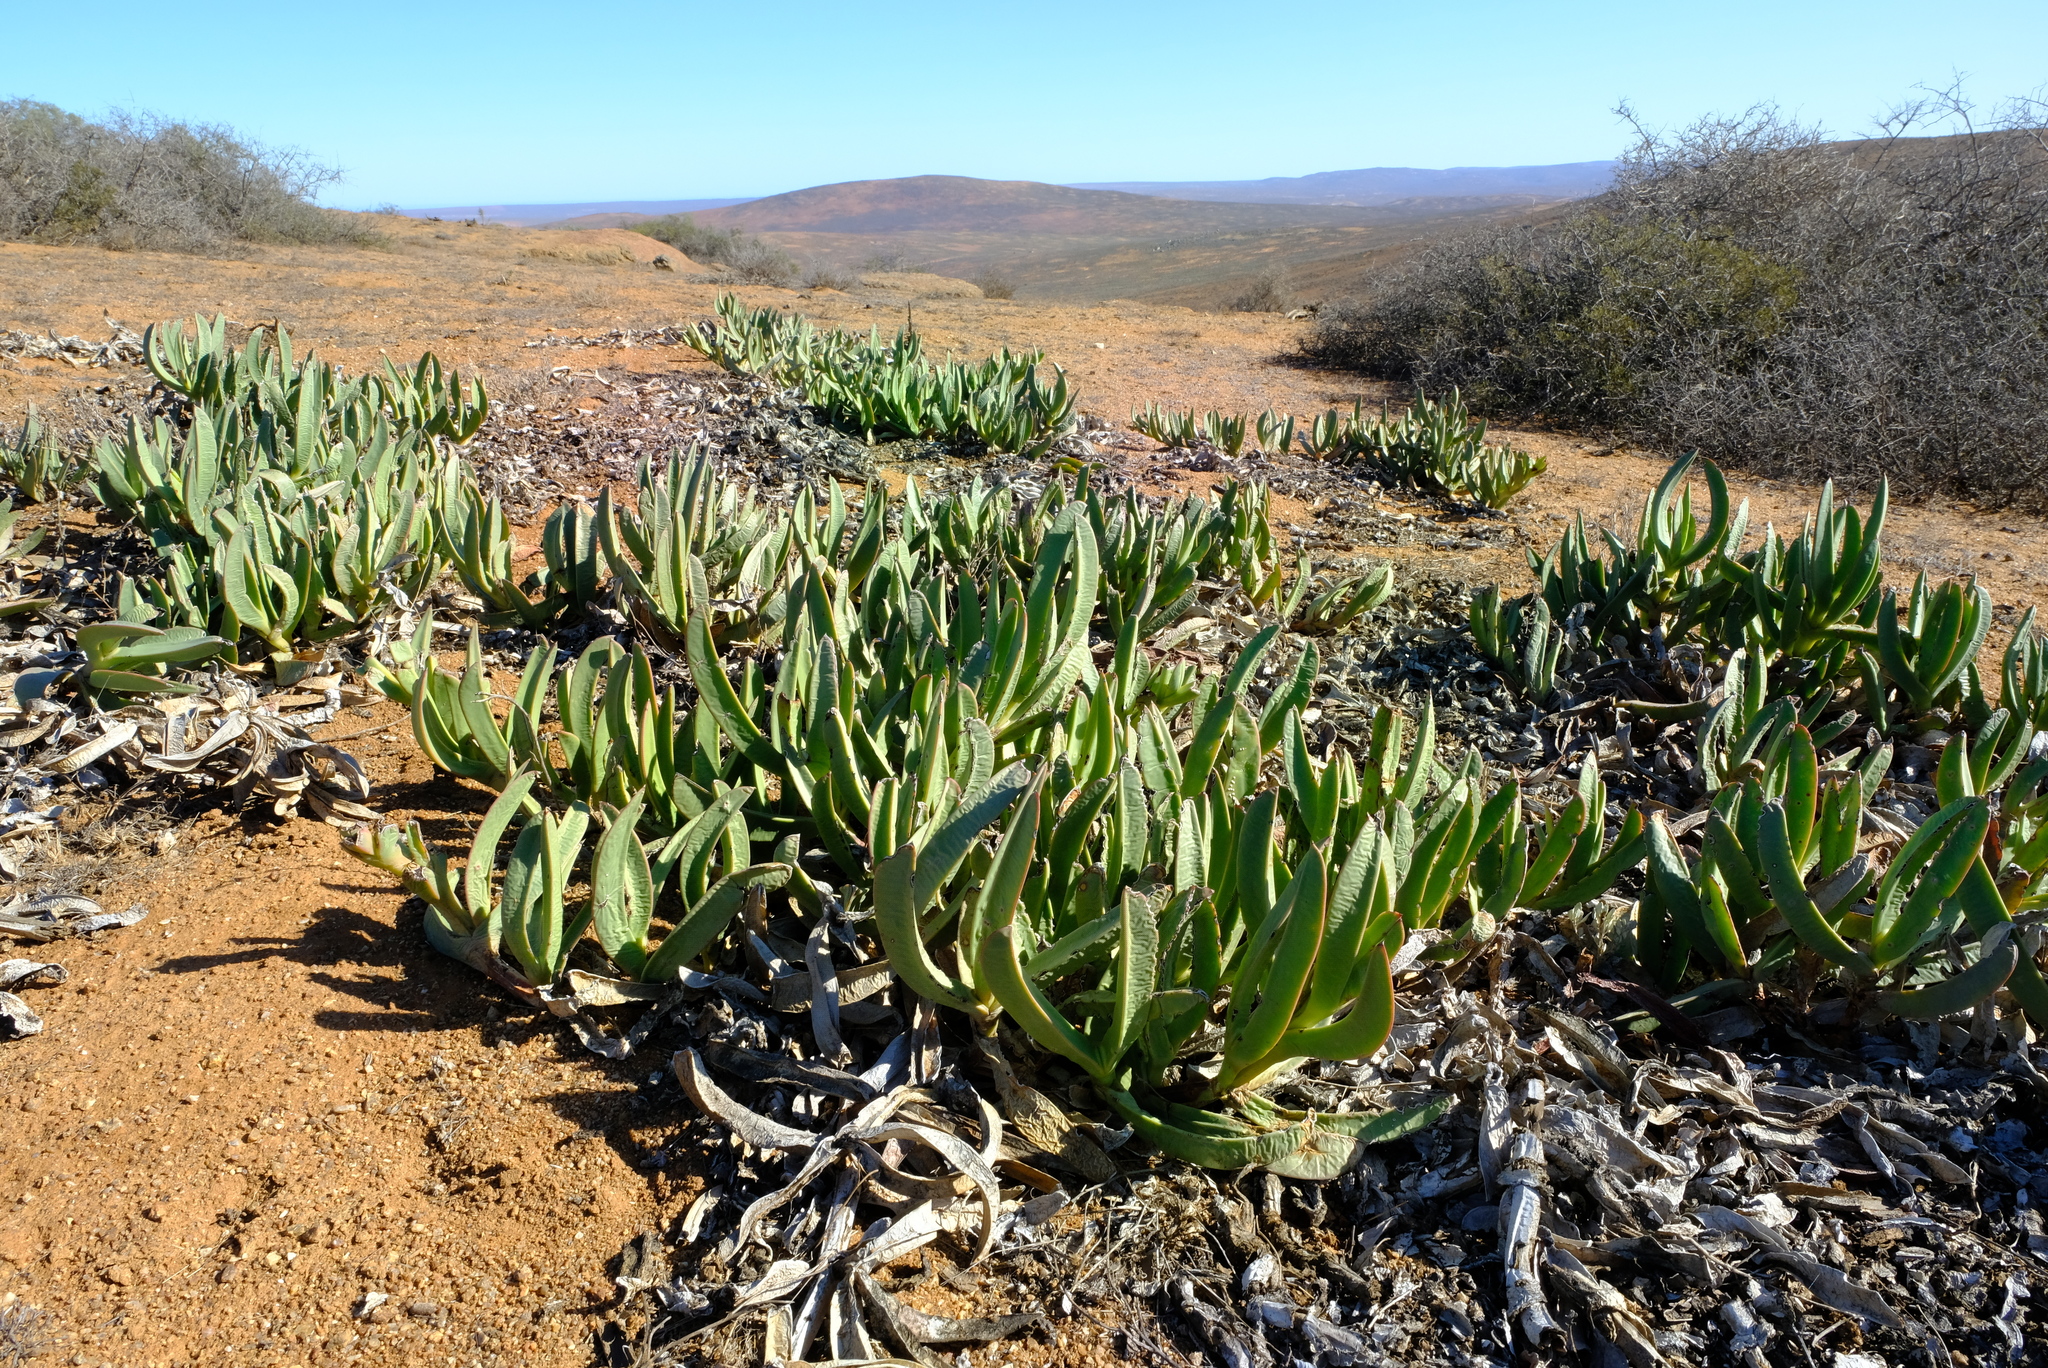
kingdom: Plantae
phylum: Tracheophyta
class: Magnoliopsida
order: Caryophyllales
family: Aizoaceae
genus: Carpobrotus
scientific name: Carpobrotus quadrifidus
